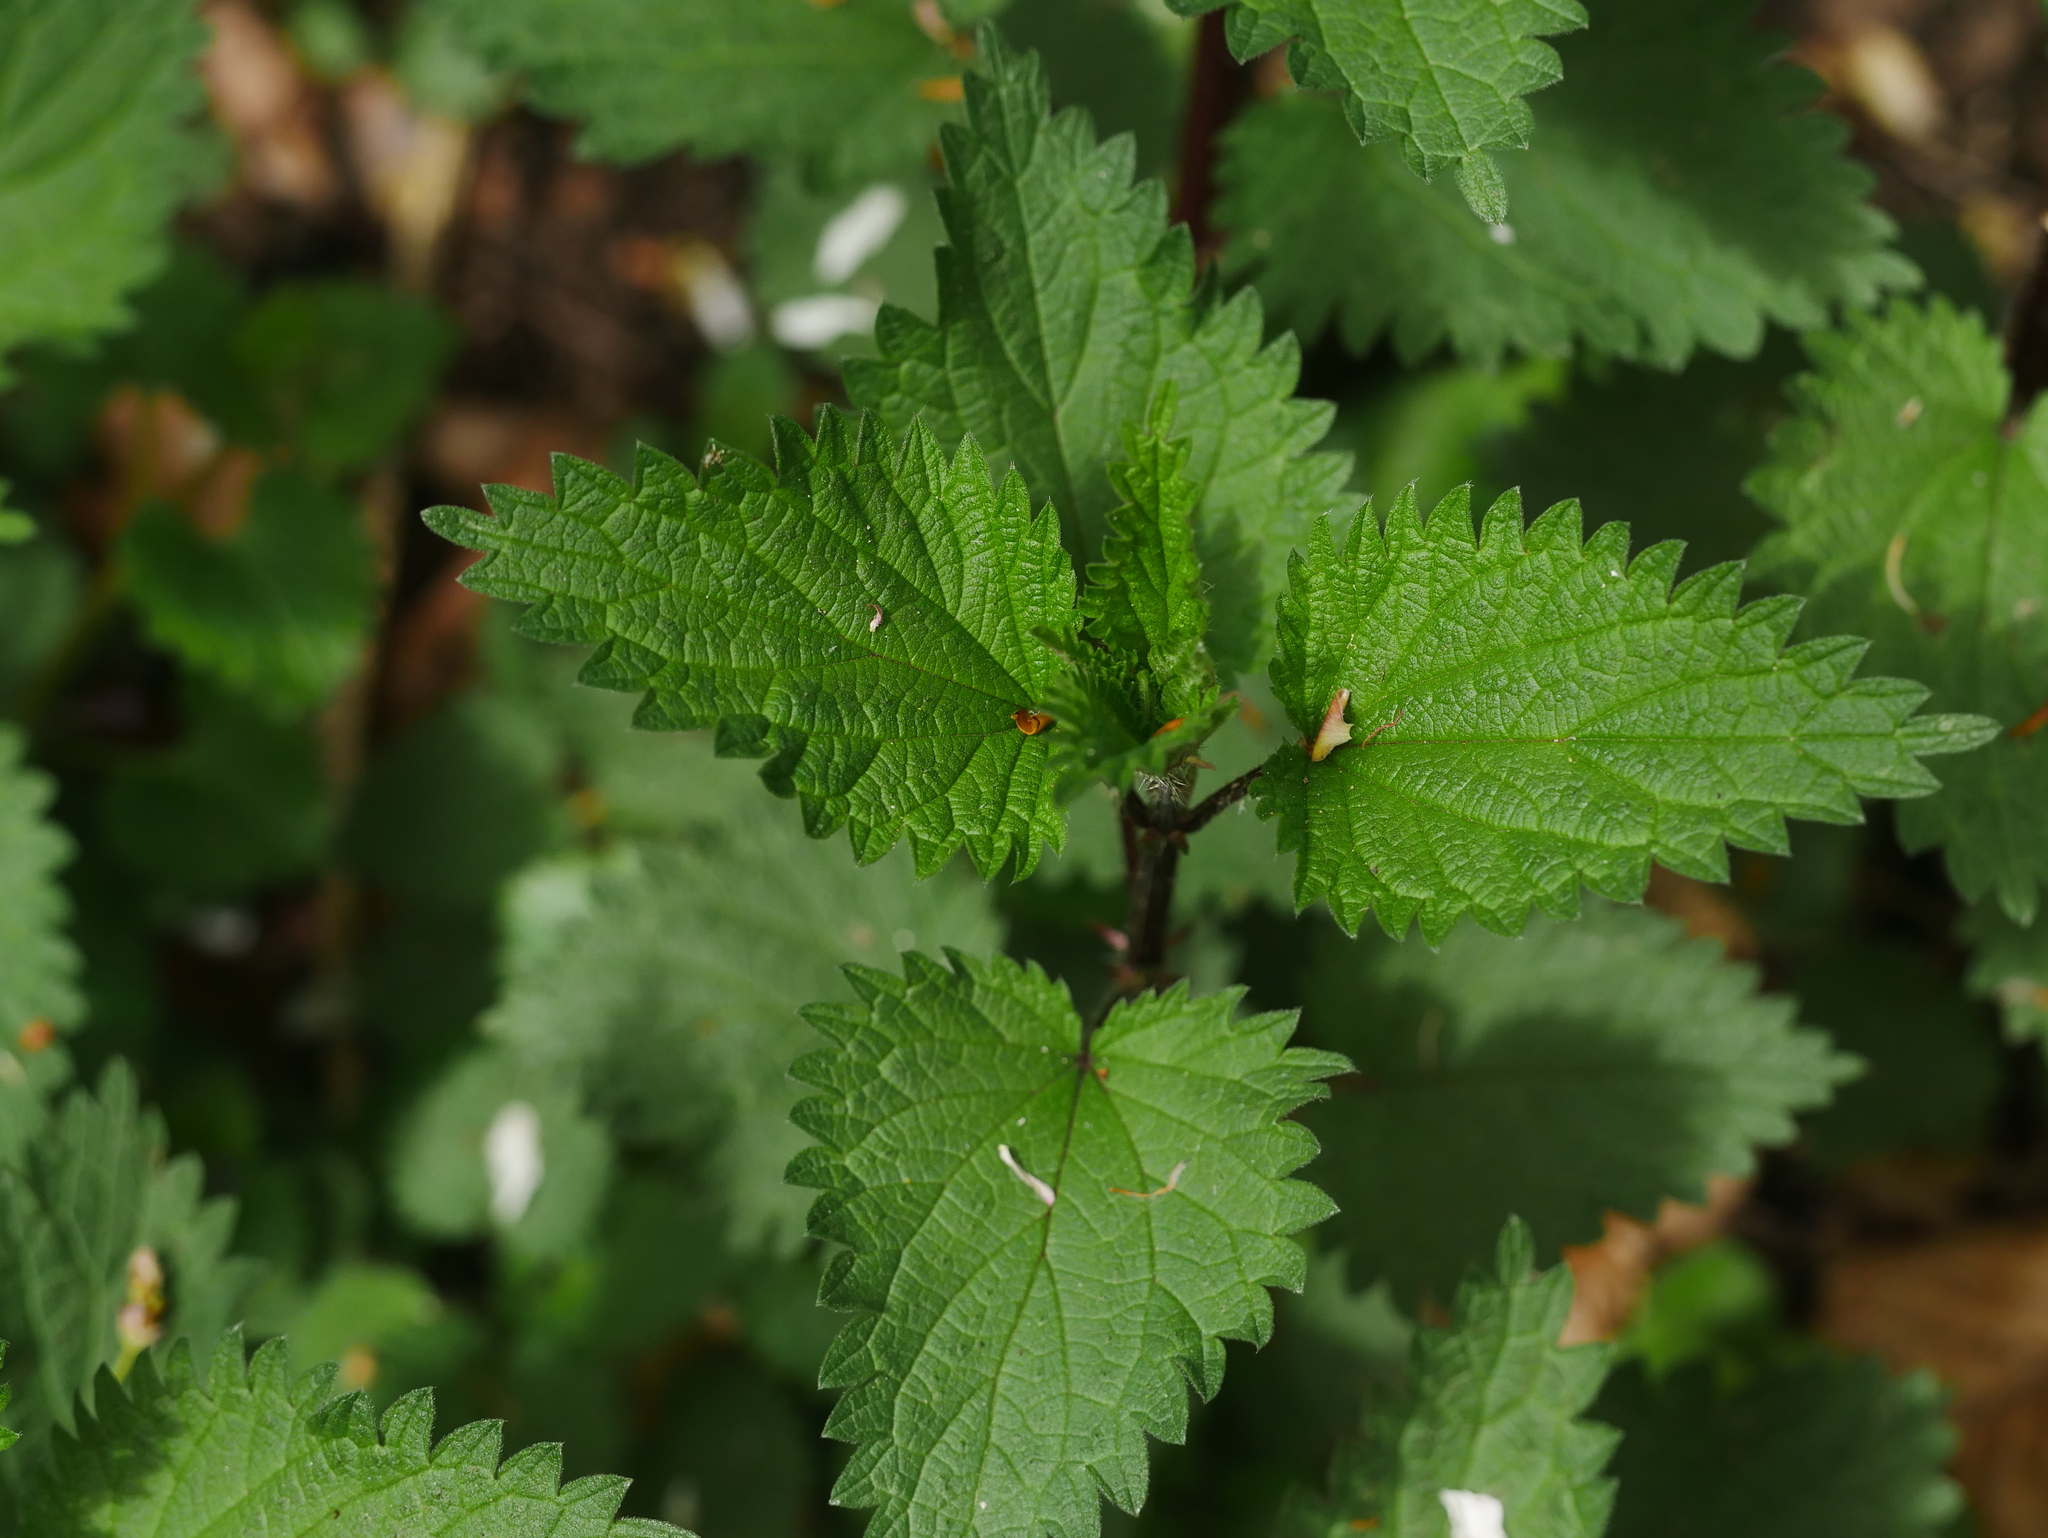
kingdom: Plantae
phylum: Tracheophyta
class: Magnoliopsida
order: Rosales
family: Urticaceae
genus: Urtica
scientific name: Urtica dioica
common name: Common nettle
